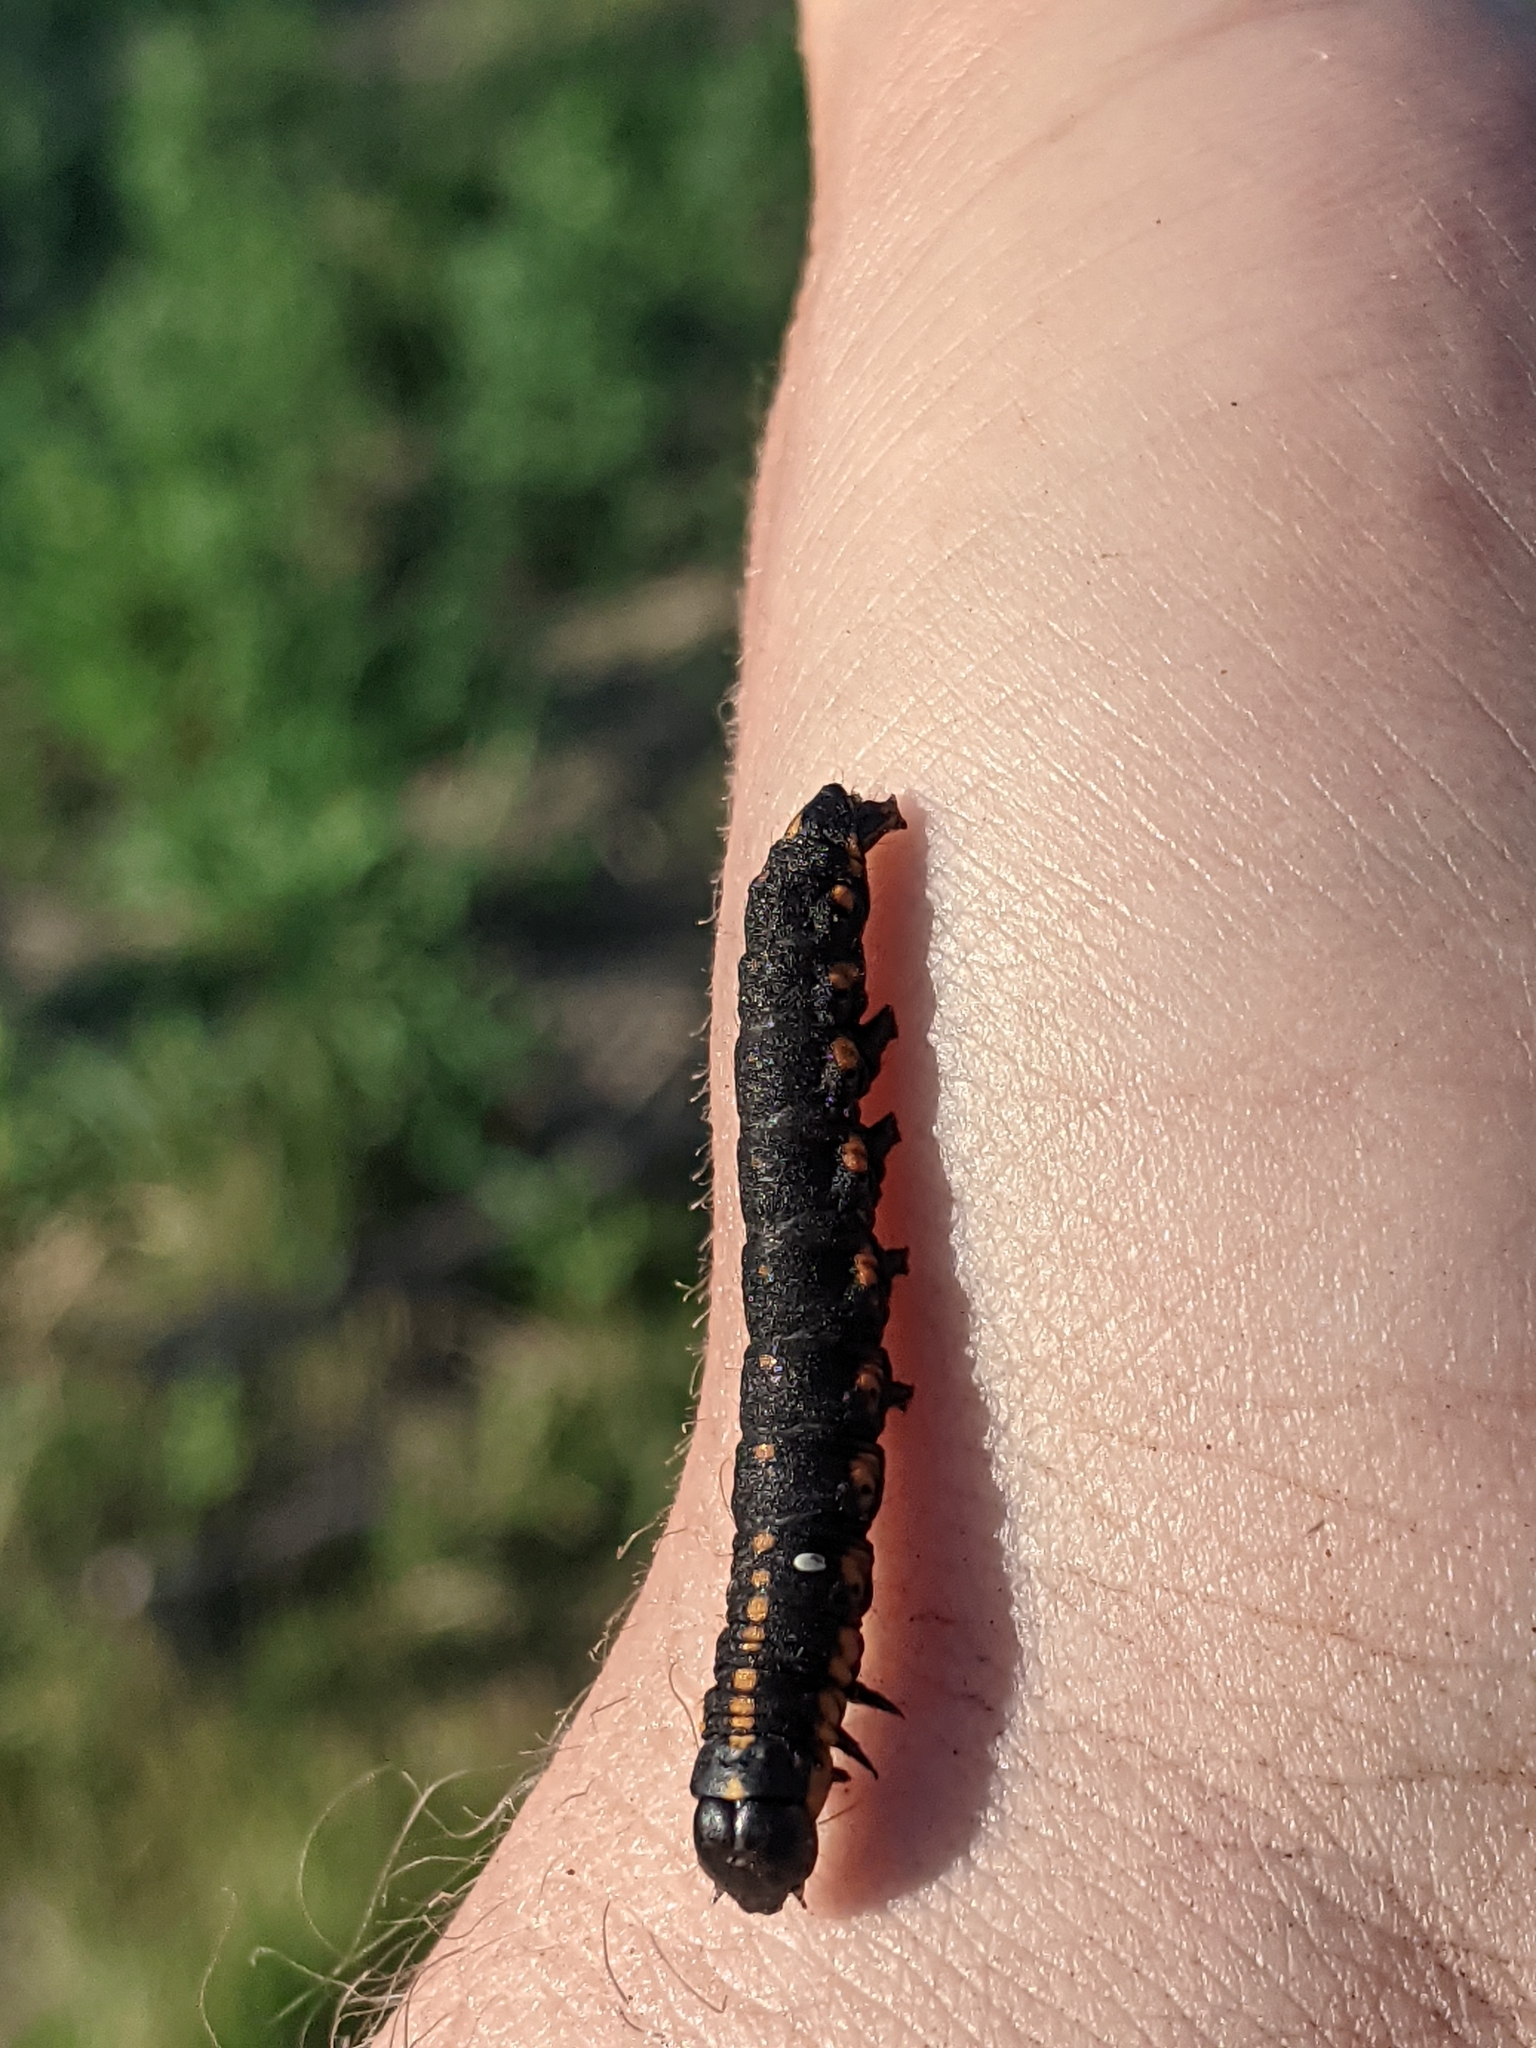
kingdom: Animalia
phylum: Arthropoda
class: Insecta
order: Lepidoptera
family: Noctuidae
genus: Cucullia
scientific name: Cucullia intermedia
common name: Goldenrod cutworm
